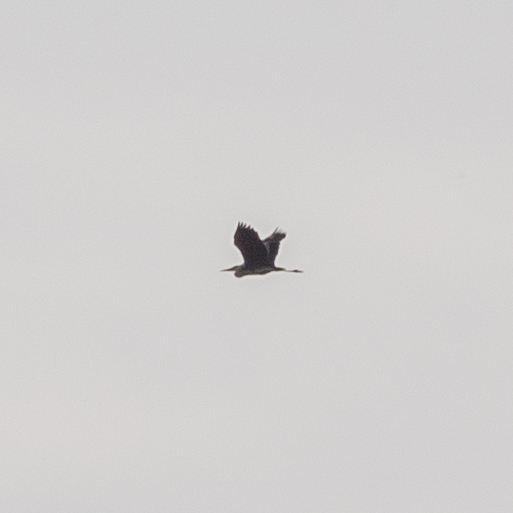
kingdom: Animalia
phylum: Chordata
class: Aves
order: Pelecaniformes
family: Ardeidae
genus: Ardea
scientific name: Ardea cinerea
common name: Grey heron
